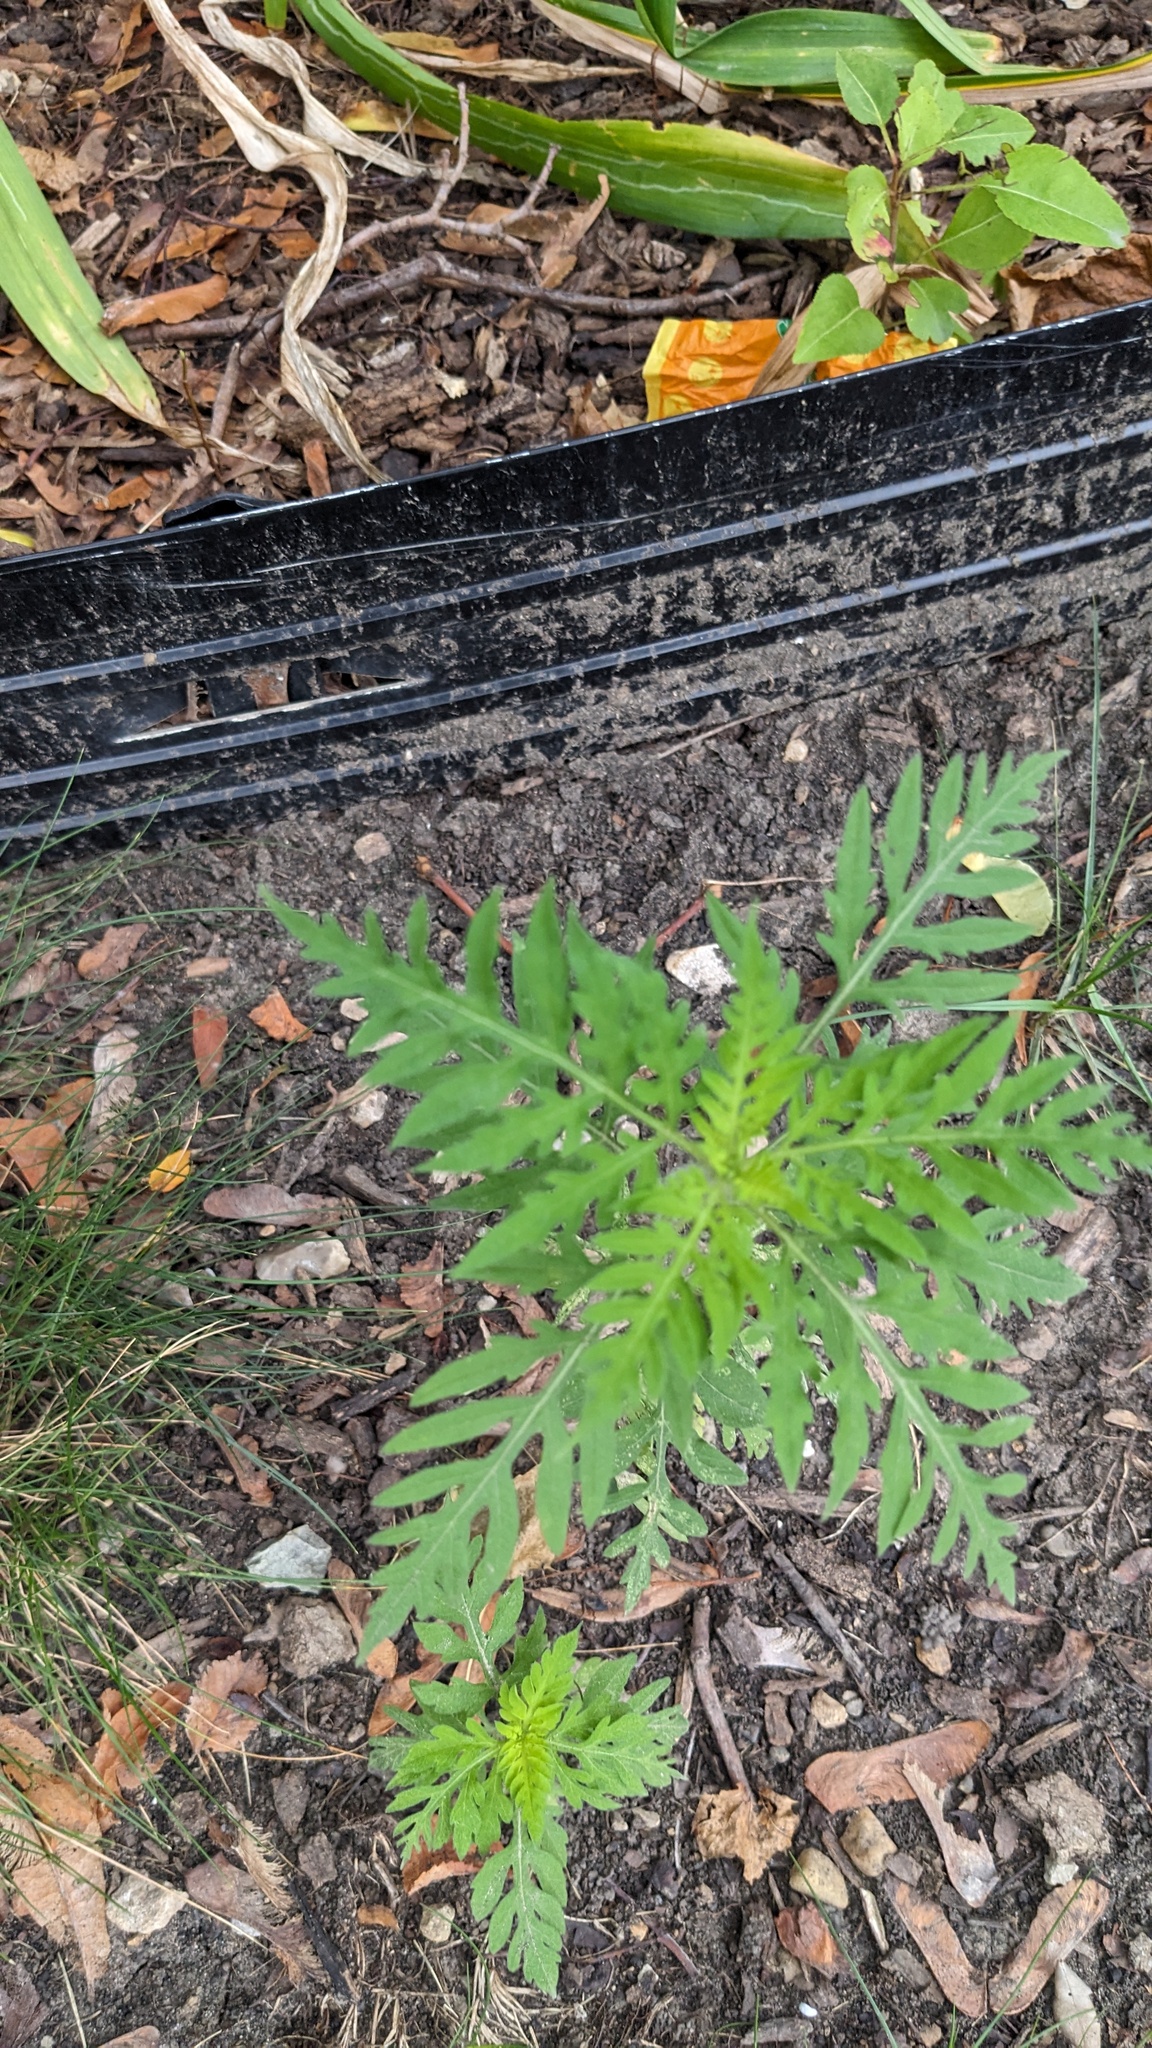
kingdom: Plantae
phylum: Tracheophyta
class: Magnoliopsida
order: Asterales
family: Asteraceae
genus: Ambrosia
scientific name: Ambrosia artemisiifolia
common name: Annual ragweed
